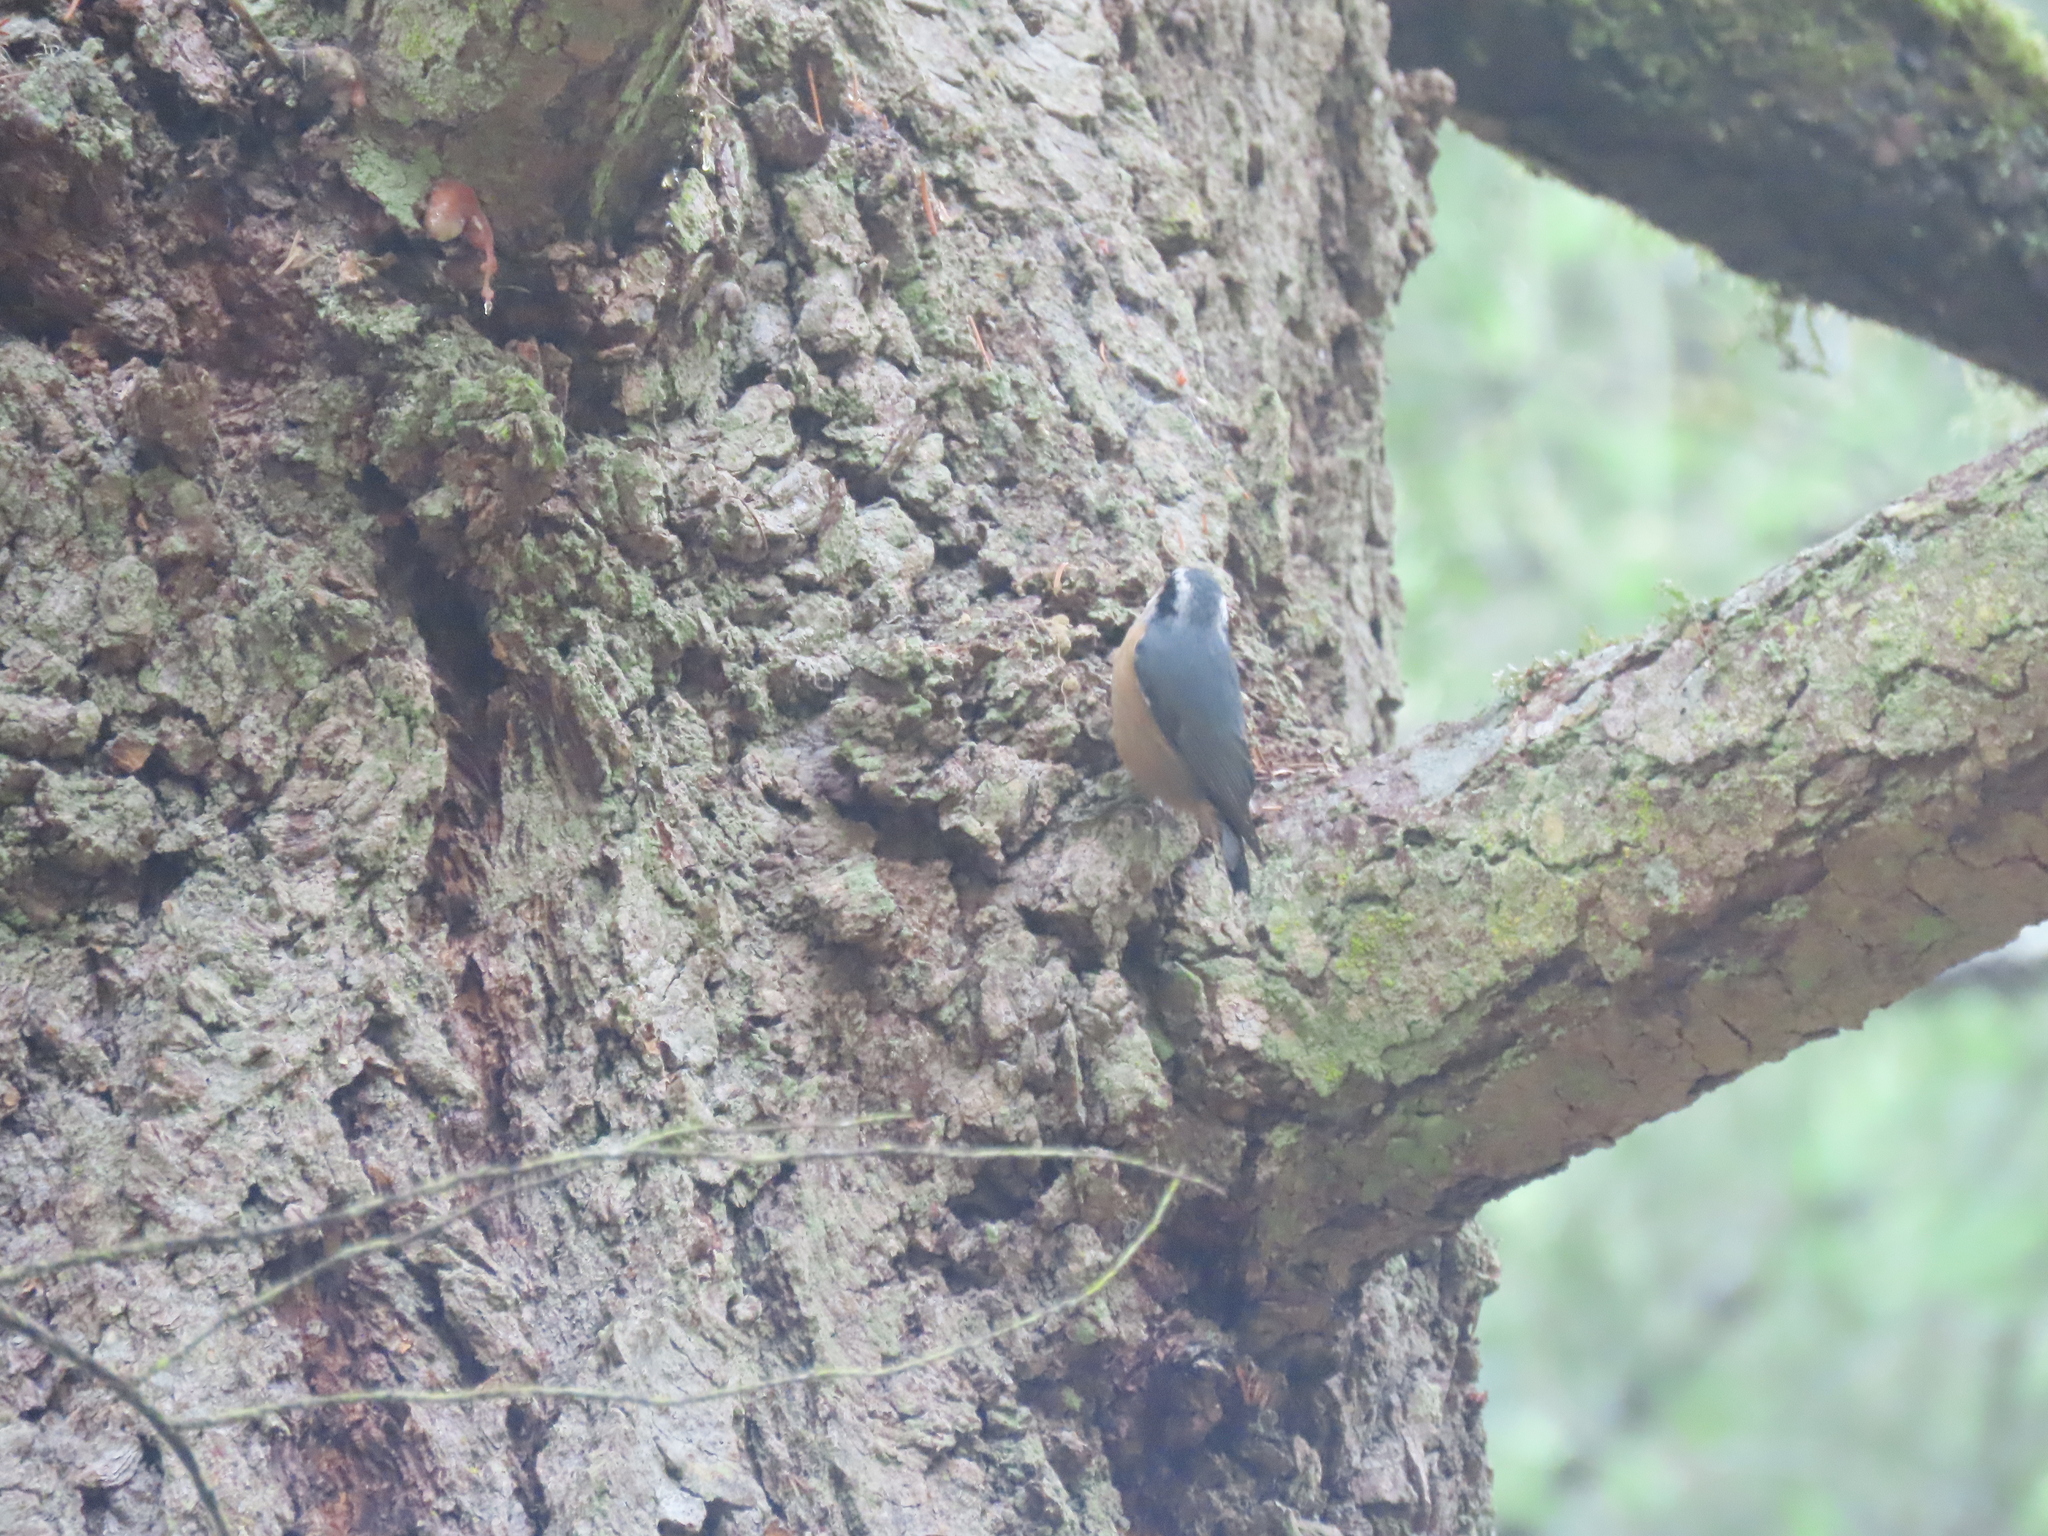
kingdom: Animalia
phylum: Chordata
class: Aves
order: Passeriformes
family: Sittidae
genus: Sitta
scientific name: Sitta canadensis
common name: Red-breasted nuthatch
